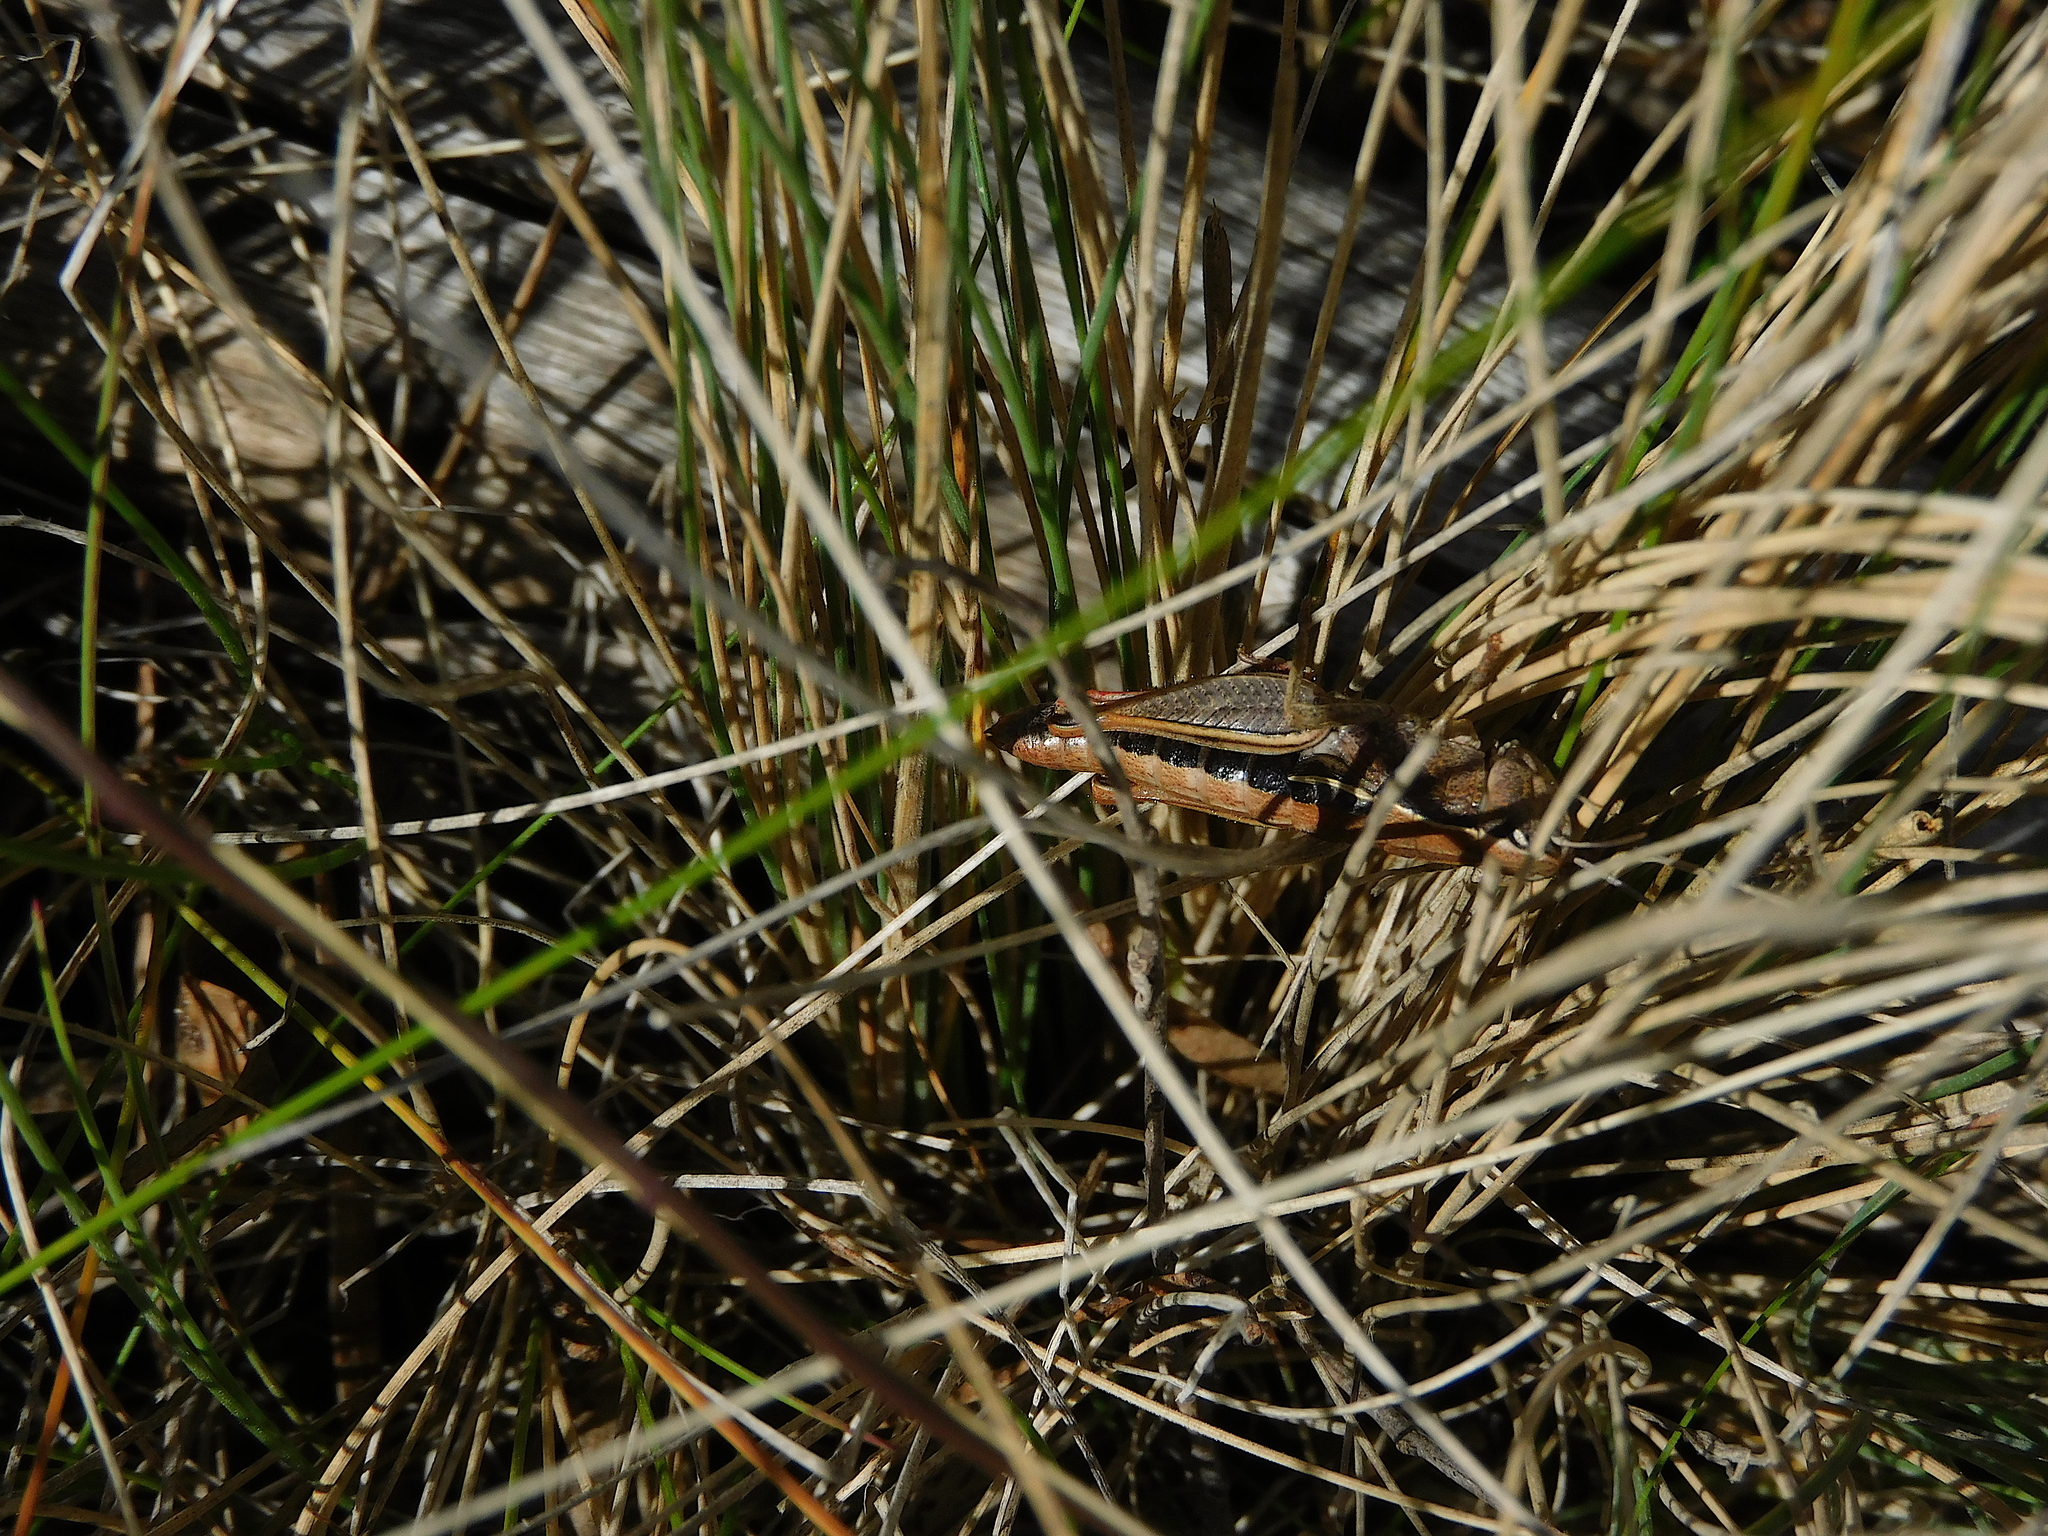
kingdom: Animalia
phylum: Arthropoda
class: Insecta
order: Orthoptera
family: Acrididae
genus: Tasmaniacris
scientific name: Tasmaniacris tasmaniensis
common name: Tasmanian grasshopper
